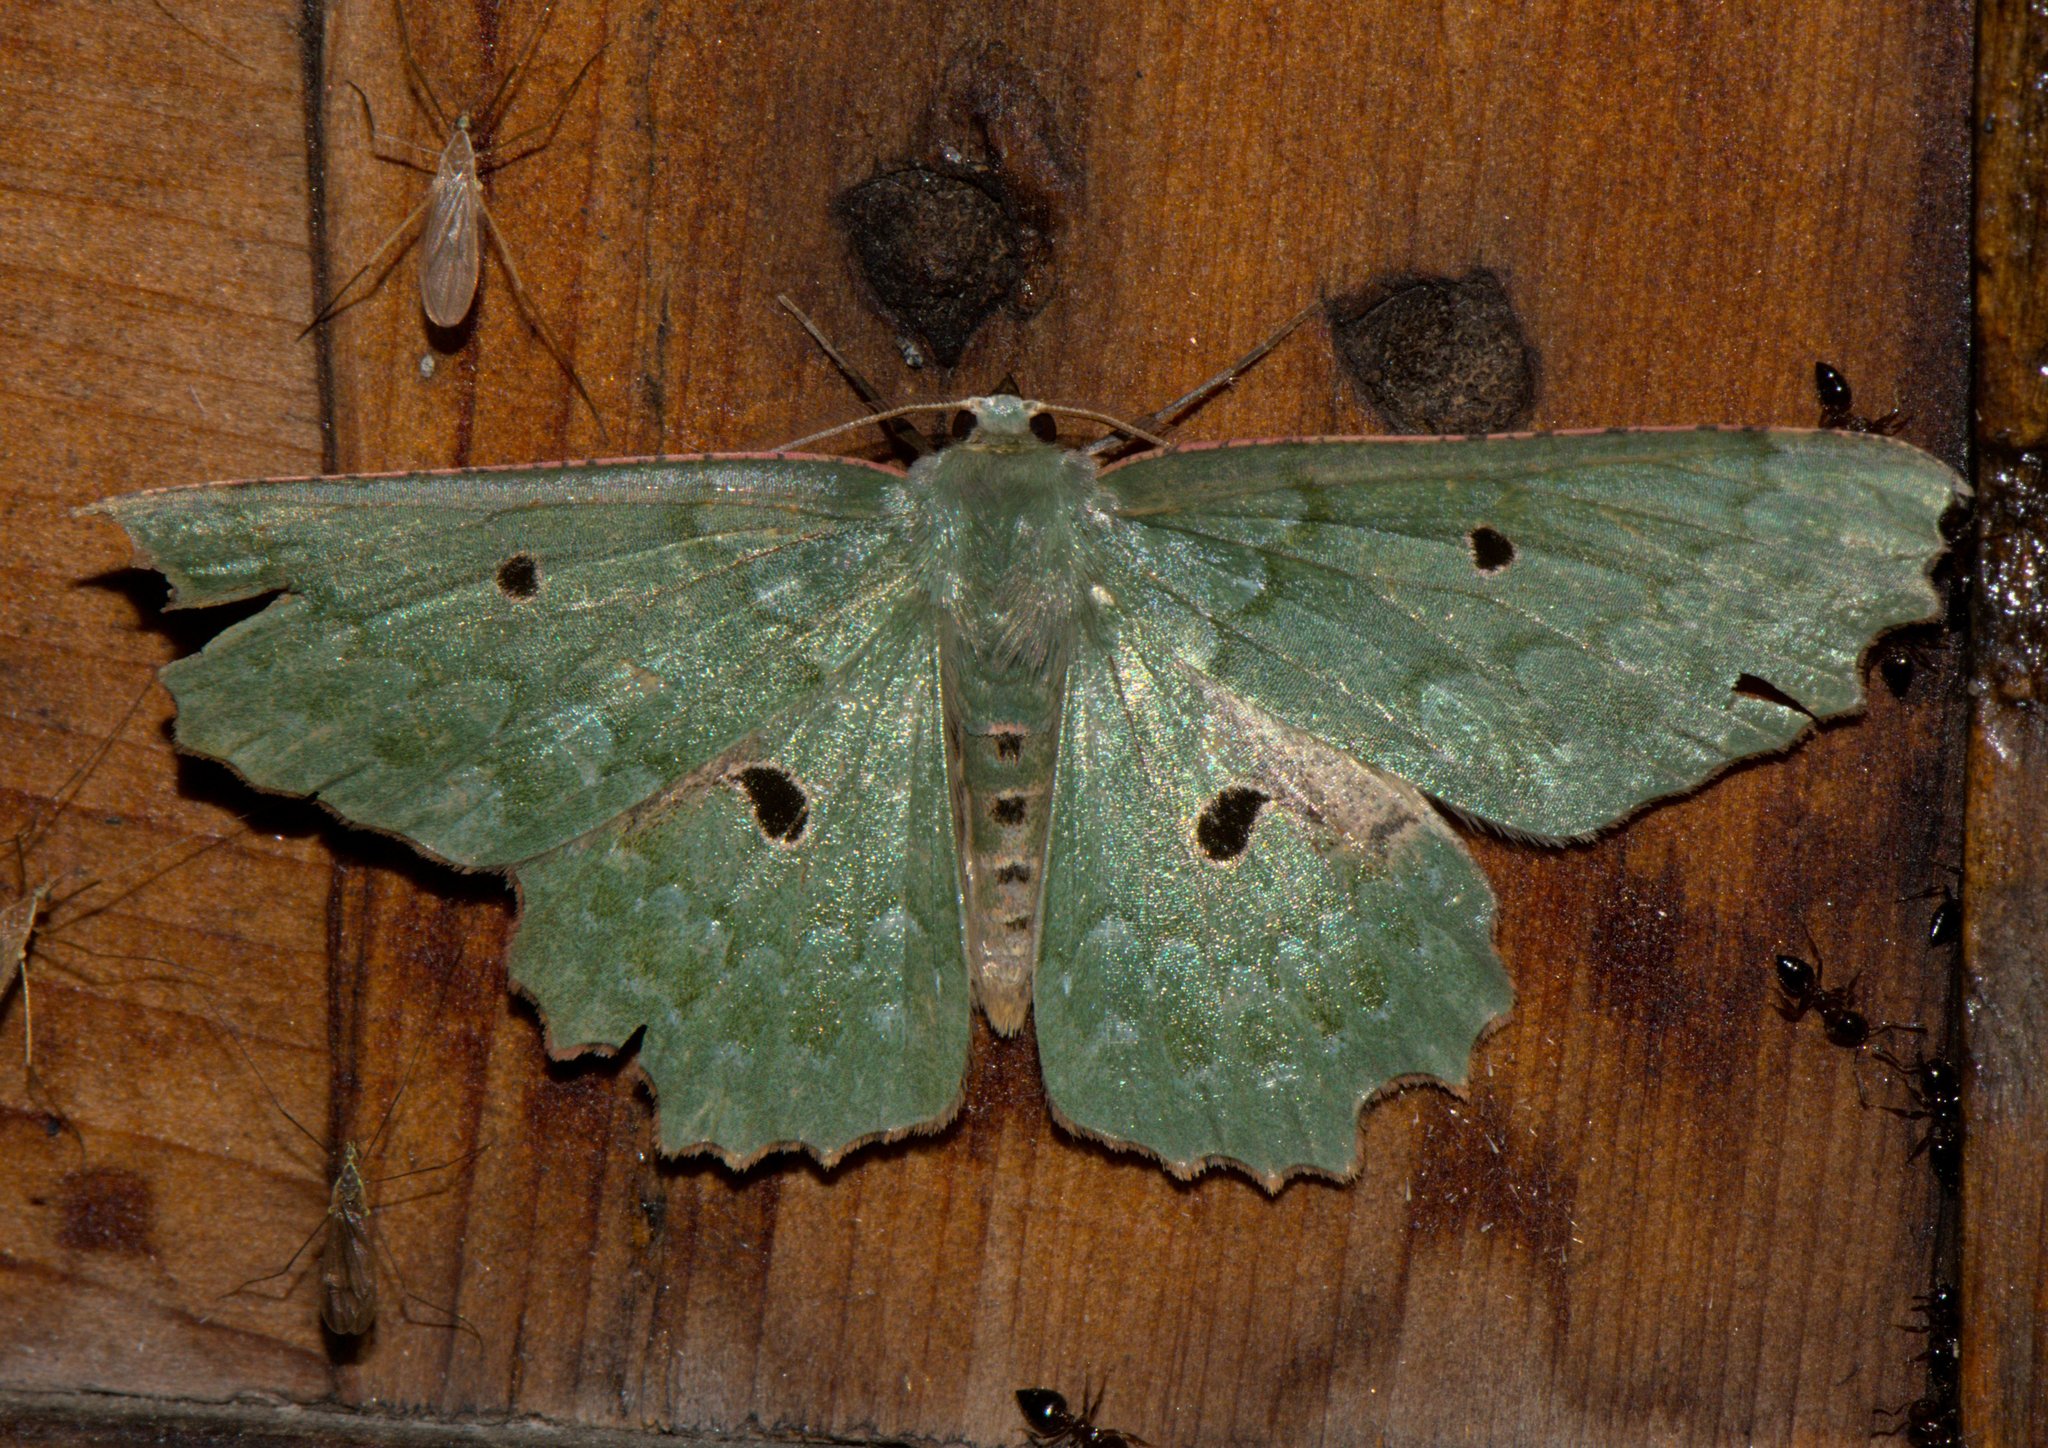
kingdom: Animalia
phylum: Arthropoda
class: Insecta
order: Lepidoptera
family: Geometridae
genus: Chlorodontopera
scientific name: Chlorodontopera discospilata
